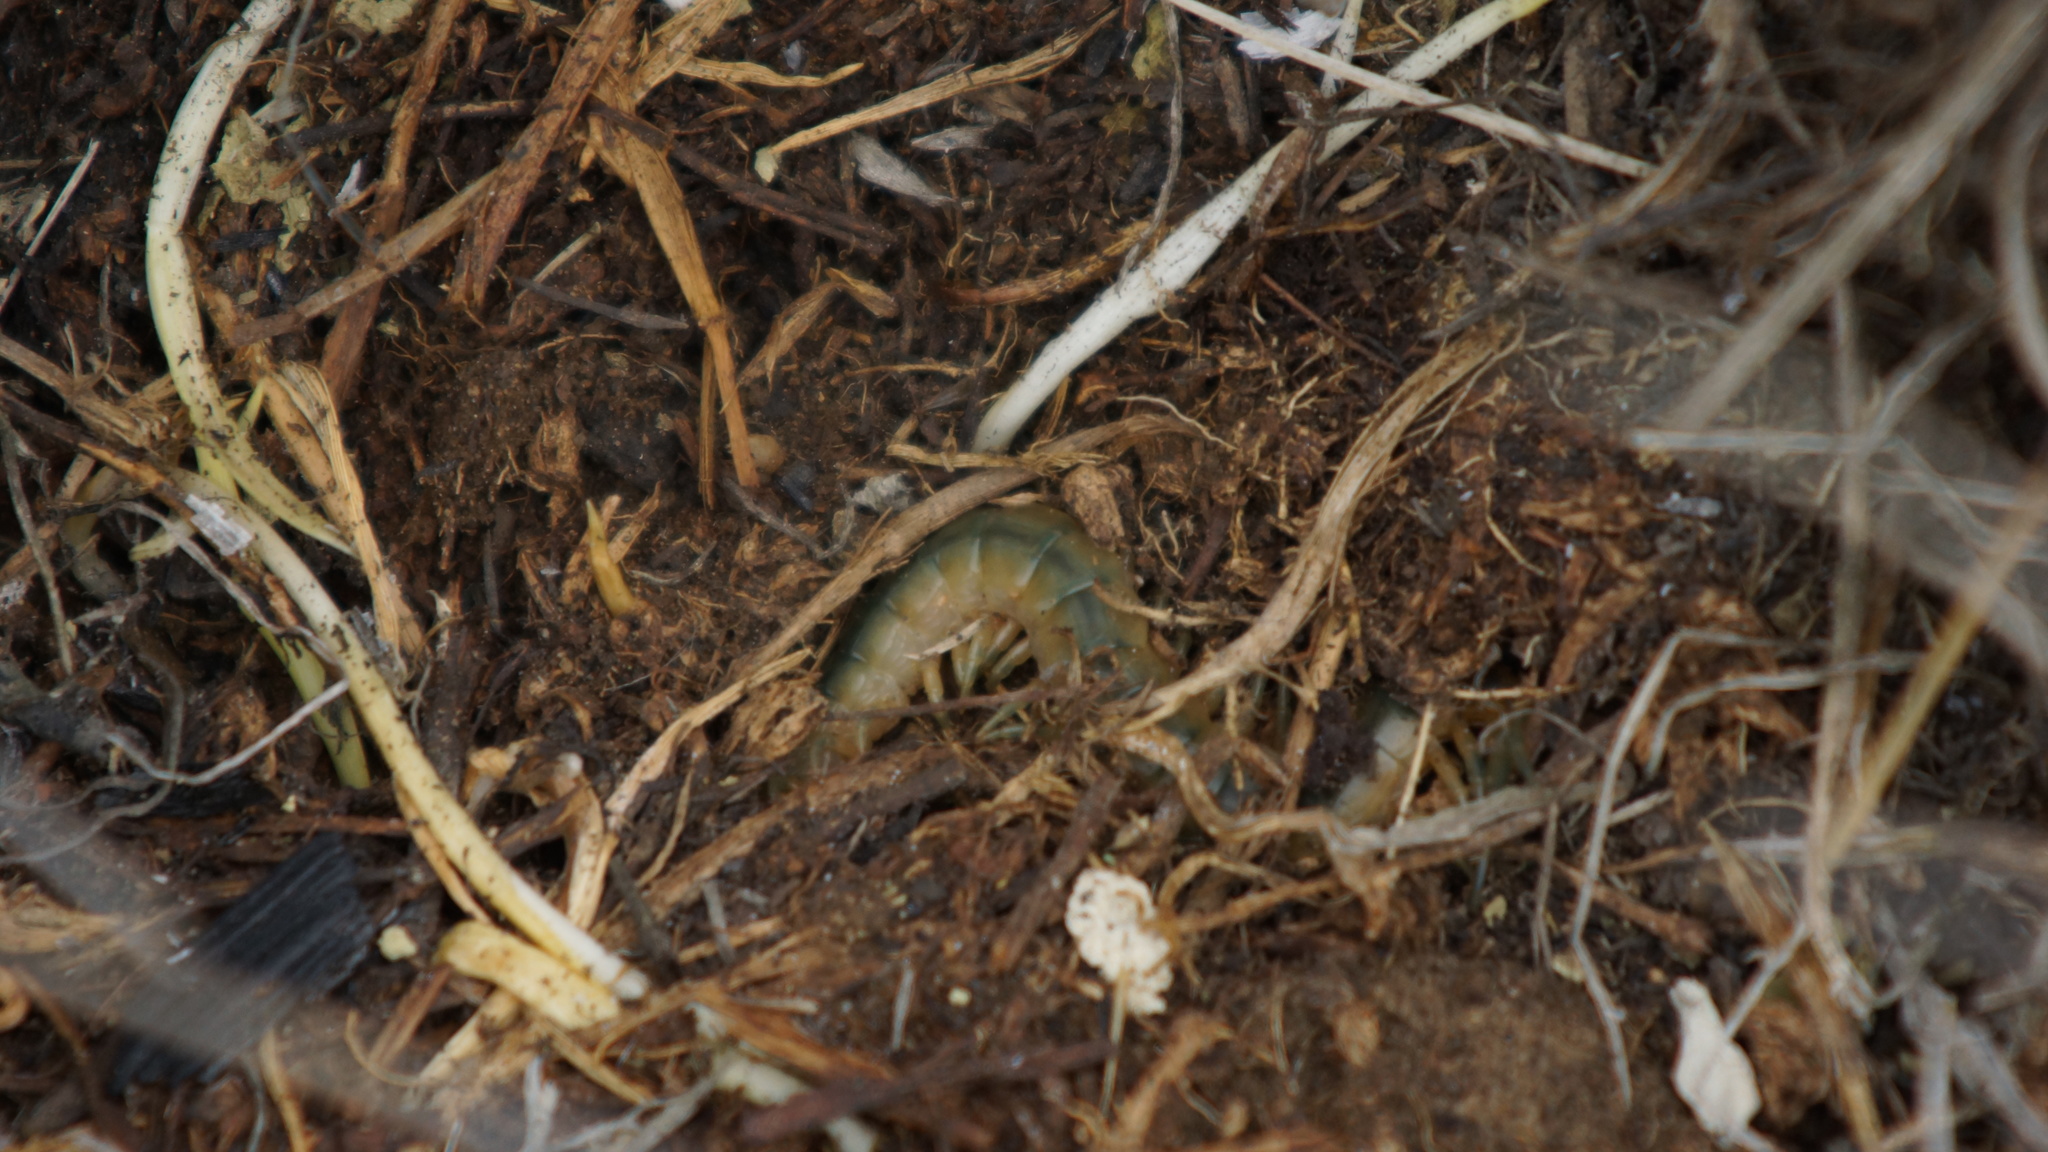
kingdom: Animalia
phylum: Arthropoda
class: Chilopoda
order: Scolopendromorpha
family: Scolopendridae
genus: Scolopendra
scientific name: Scolopendra canidens
